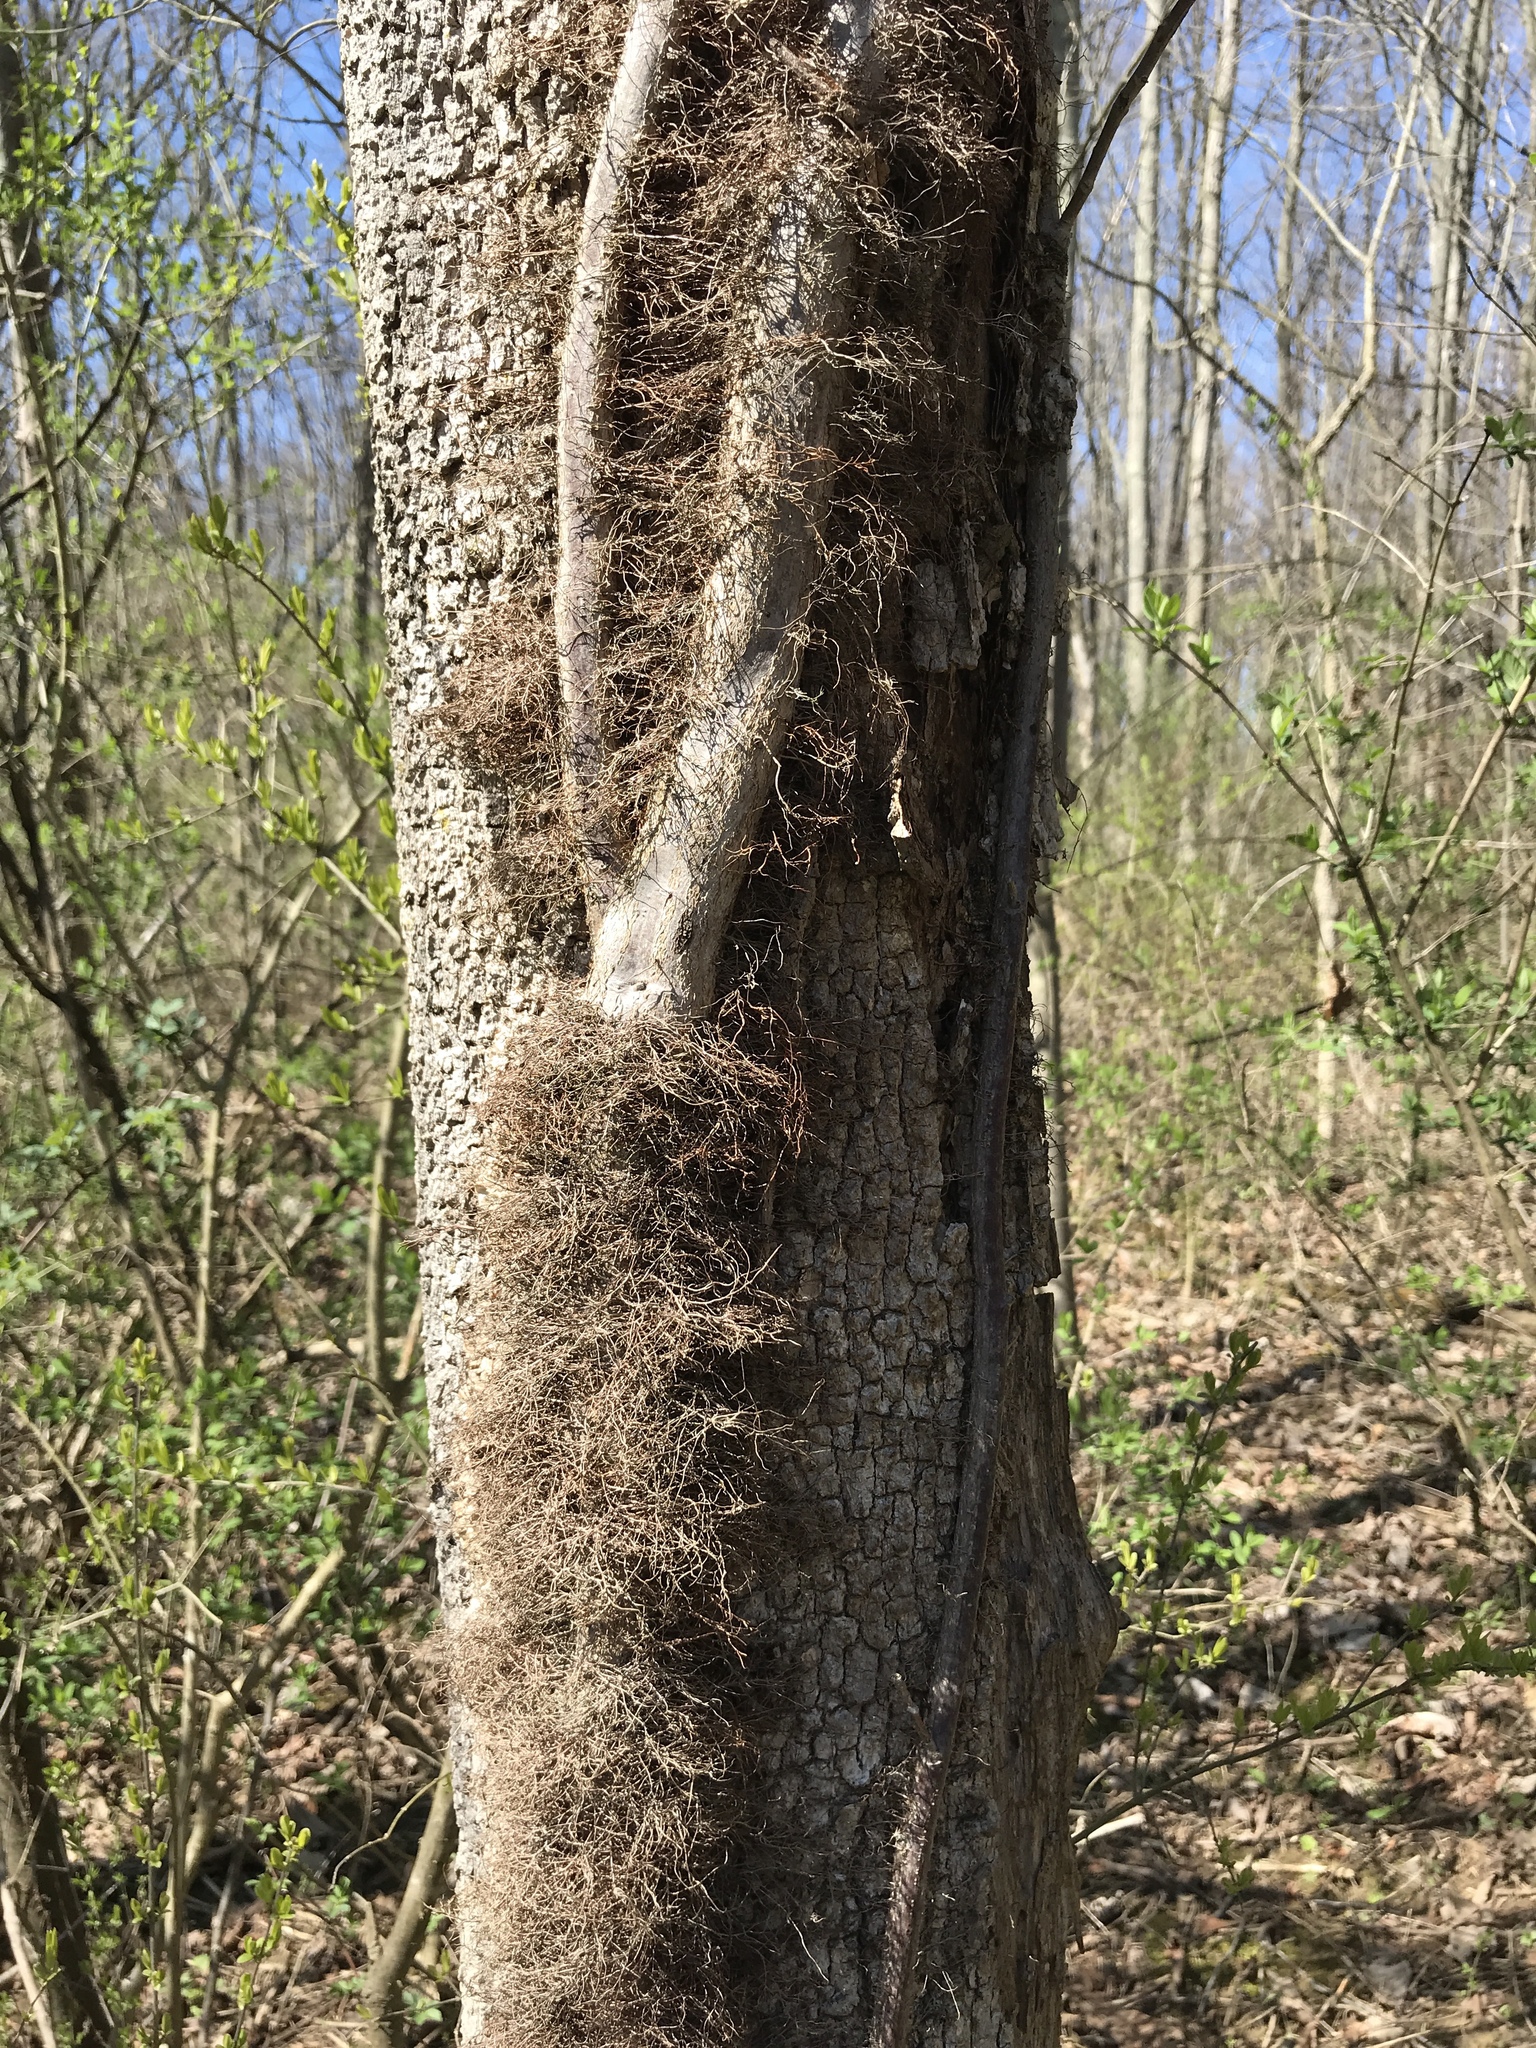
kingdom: Plantae
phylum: Tracheophyta
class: Magnoliopsida
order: Sapindales
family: Anacardiaceae
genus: Toxicodendron
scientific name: Toxicodendron radicans
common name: Poison ivy
